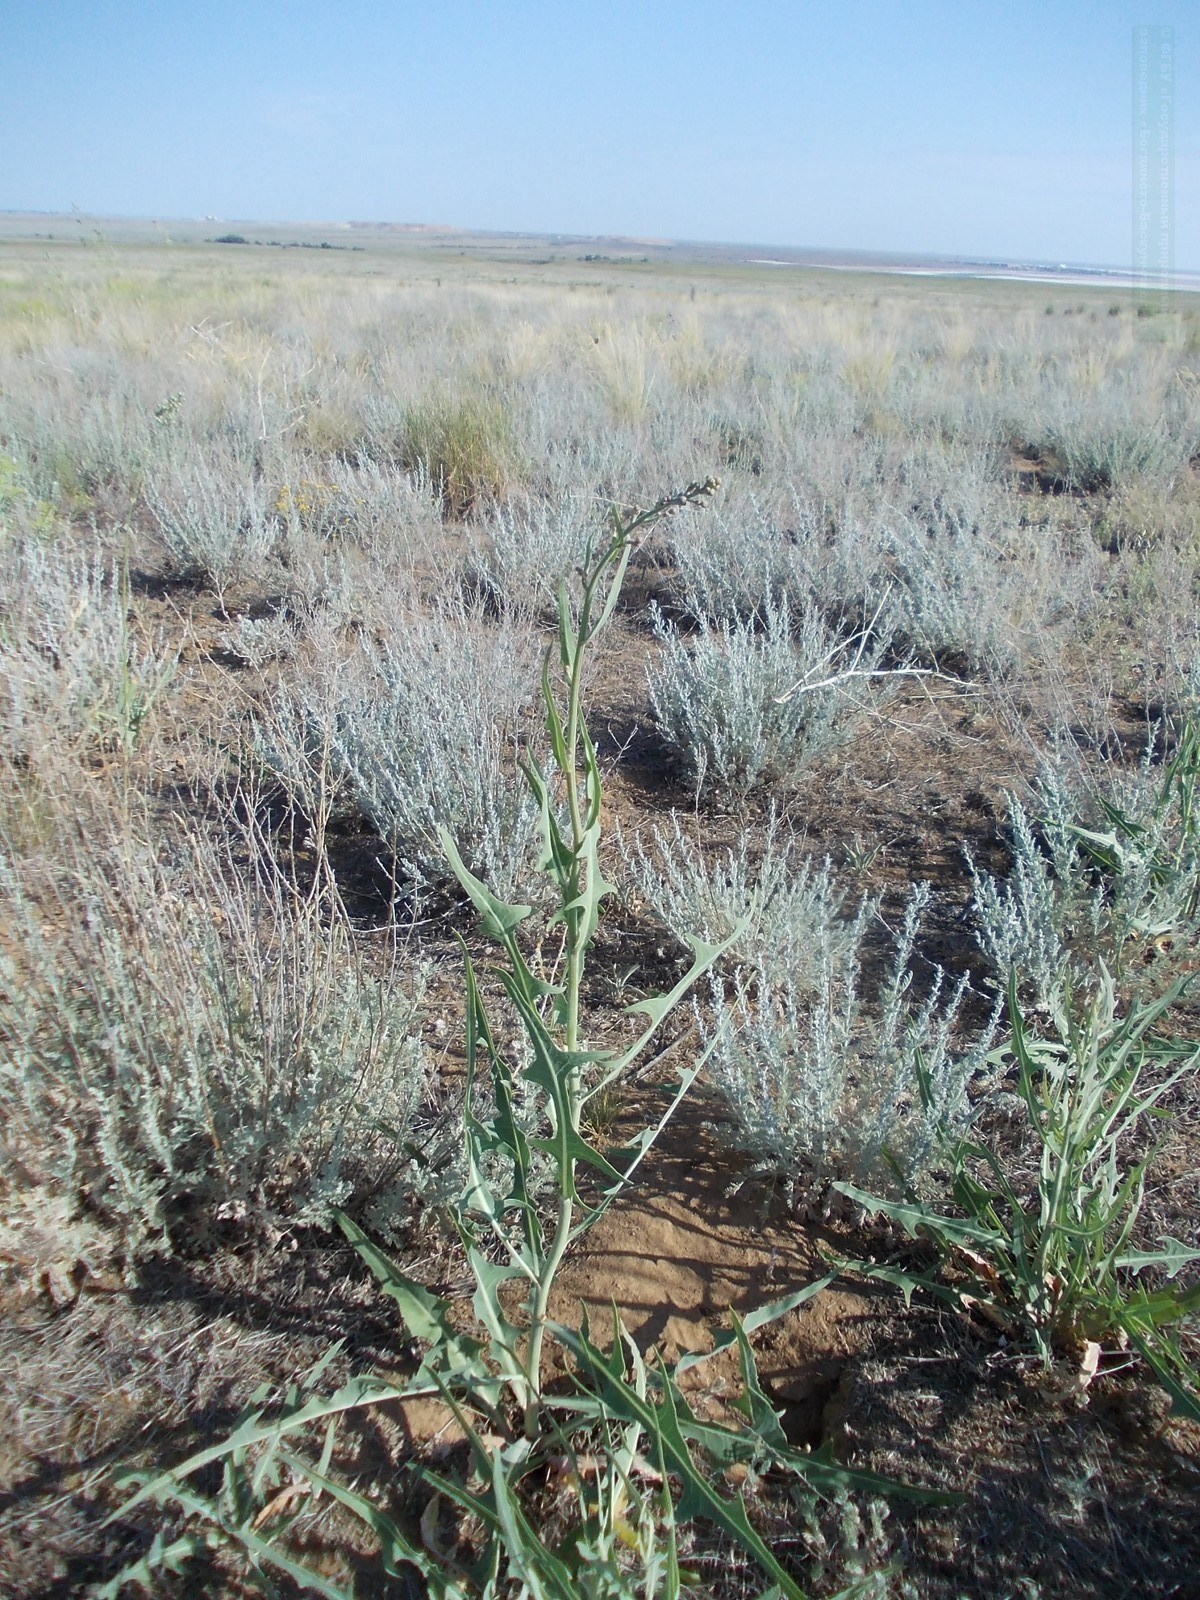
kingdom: Plantae
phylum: Tracheophyta
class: Magnoliopsida
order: Asterales
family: Asteraceae
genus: Lactuca
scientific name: Lactuca tatarica
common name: Blue lettuce
